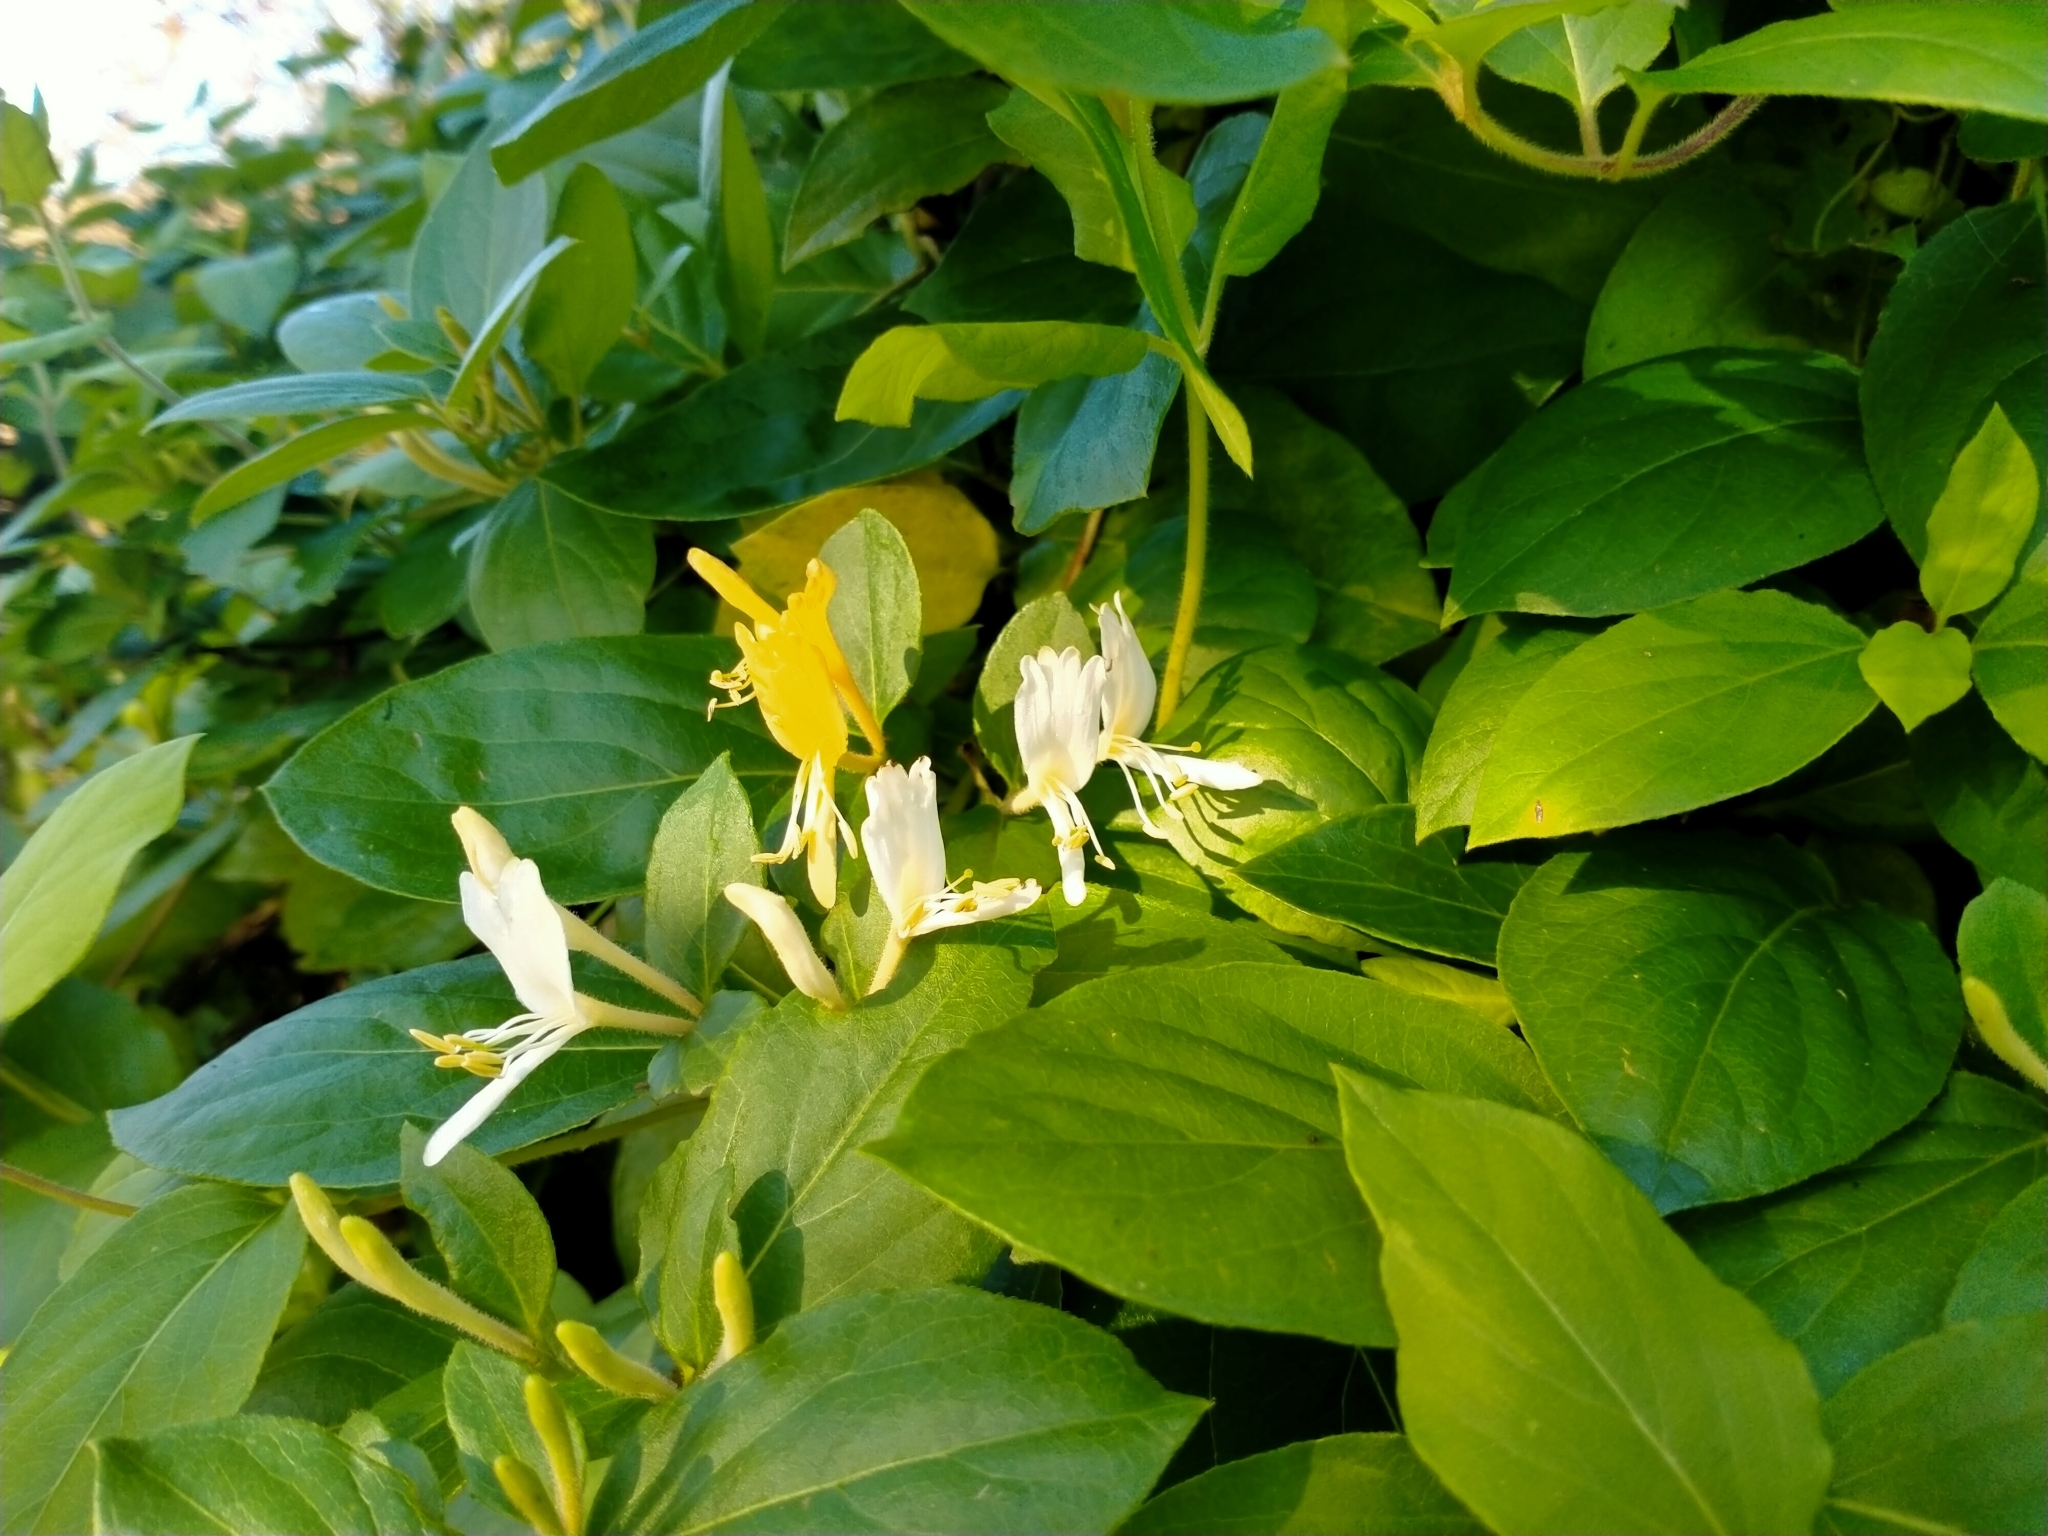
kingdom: Plantae
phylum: Tracheophyta
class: Magnoliopsida
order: Dipsacales
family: Caprifoliaceae
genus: Lonicera
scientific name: Lonicera japonica
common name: Japanese honeysuckle
